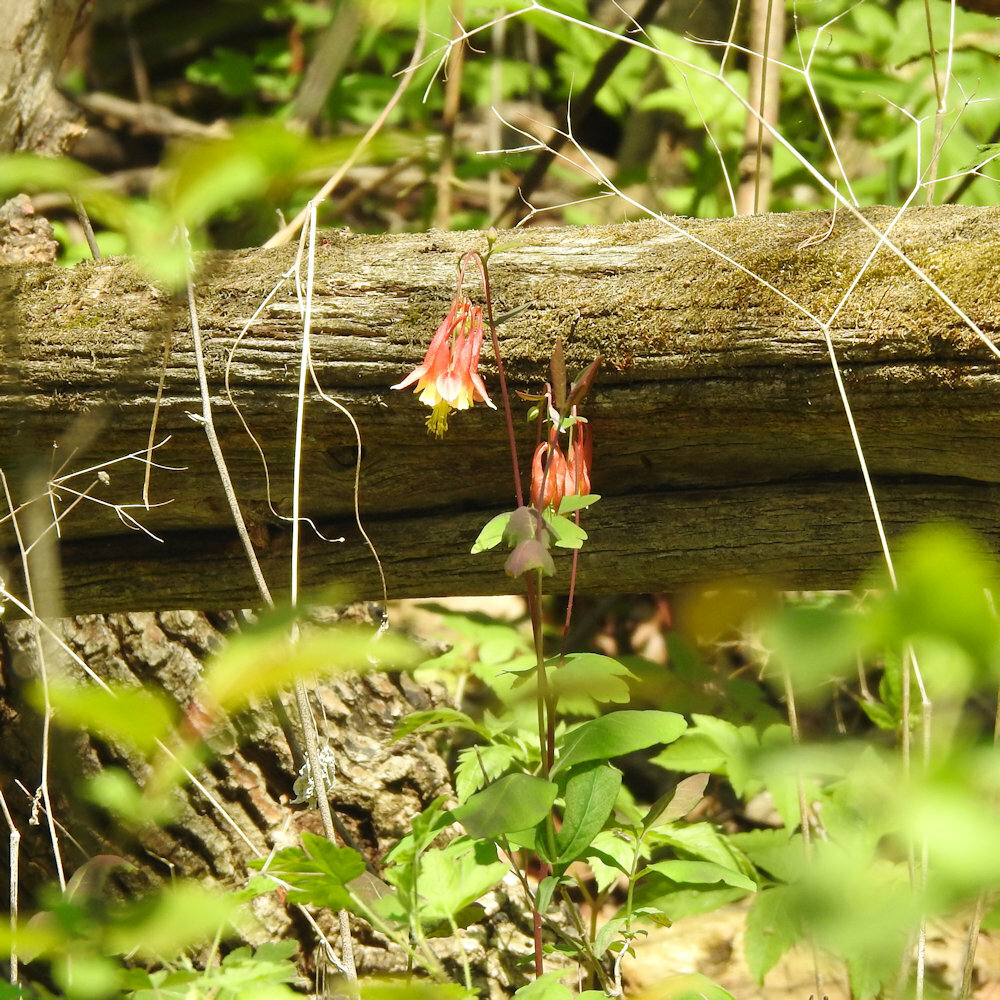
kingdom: Plantae
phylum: Tracheophyta
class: Magnoliopsida
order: Ranunculales
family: Ranunculaceae
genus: Aquilegia
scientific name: Aquilegia canadensis
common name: American columbine
